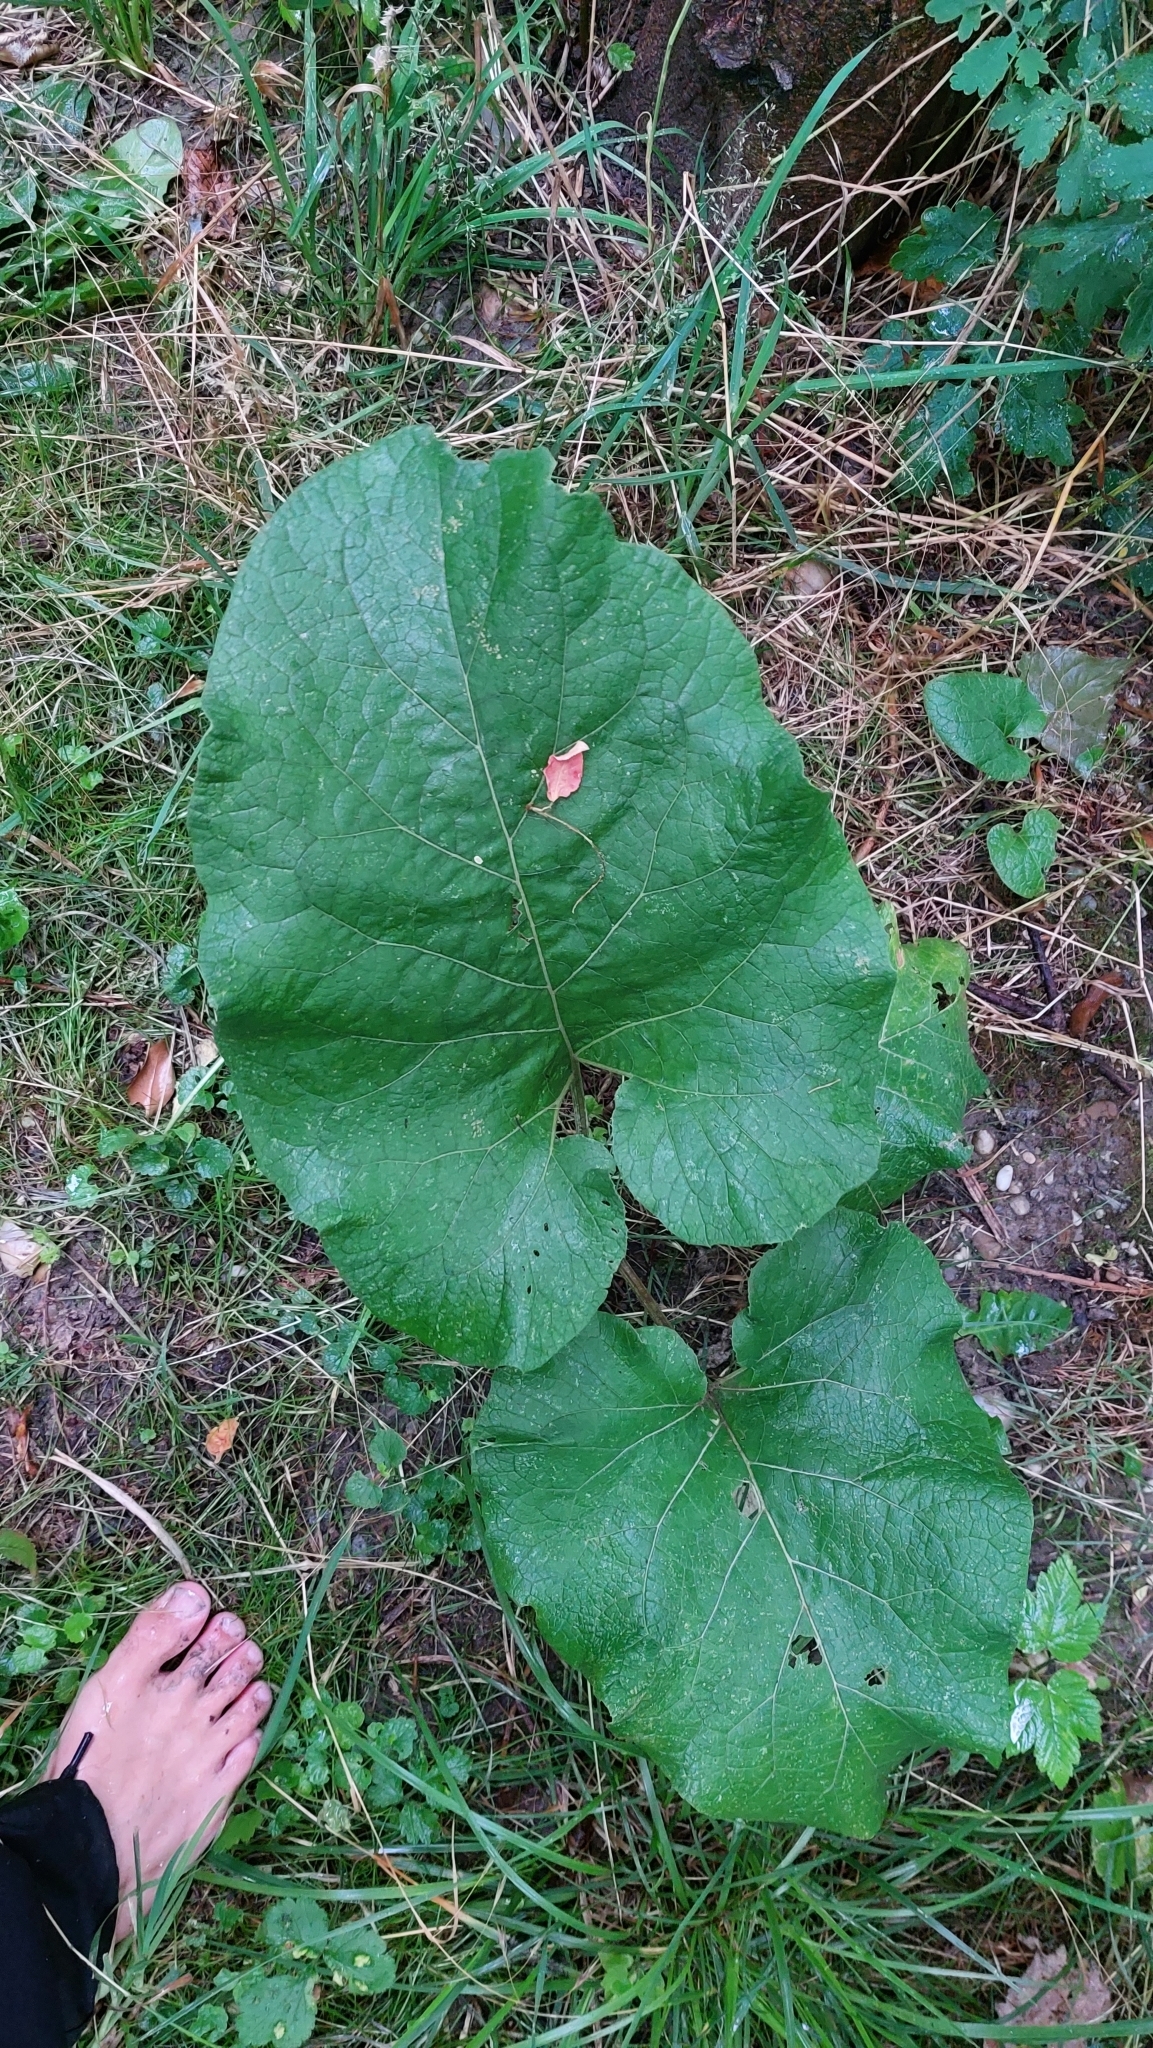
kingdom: Plantae
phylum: Tracheophyta
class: Magnoliopsida
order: Asterales
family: Asteraceae
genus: Arctium
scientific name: Arctium
